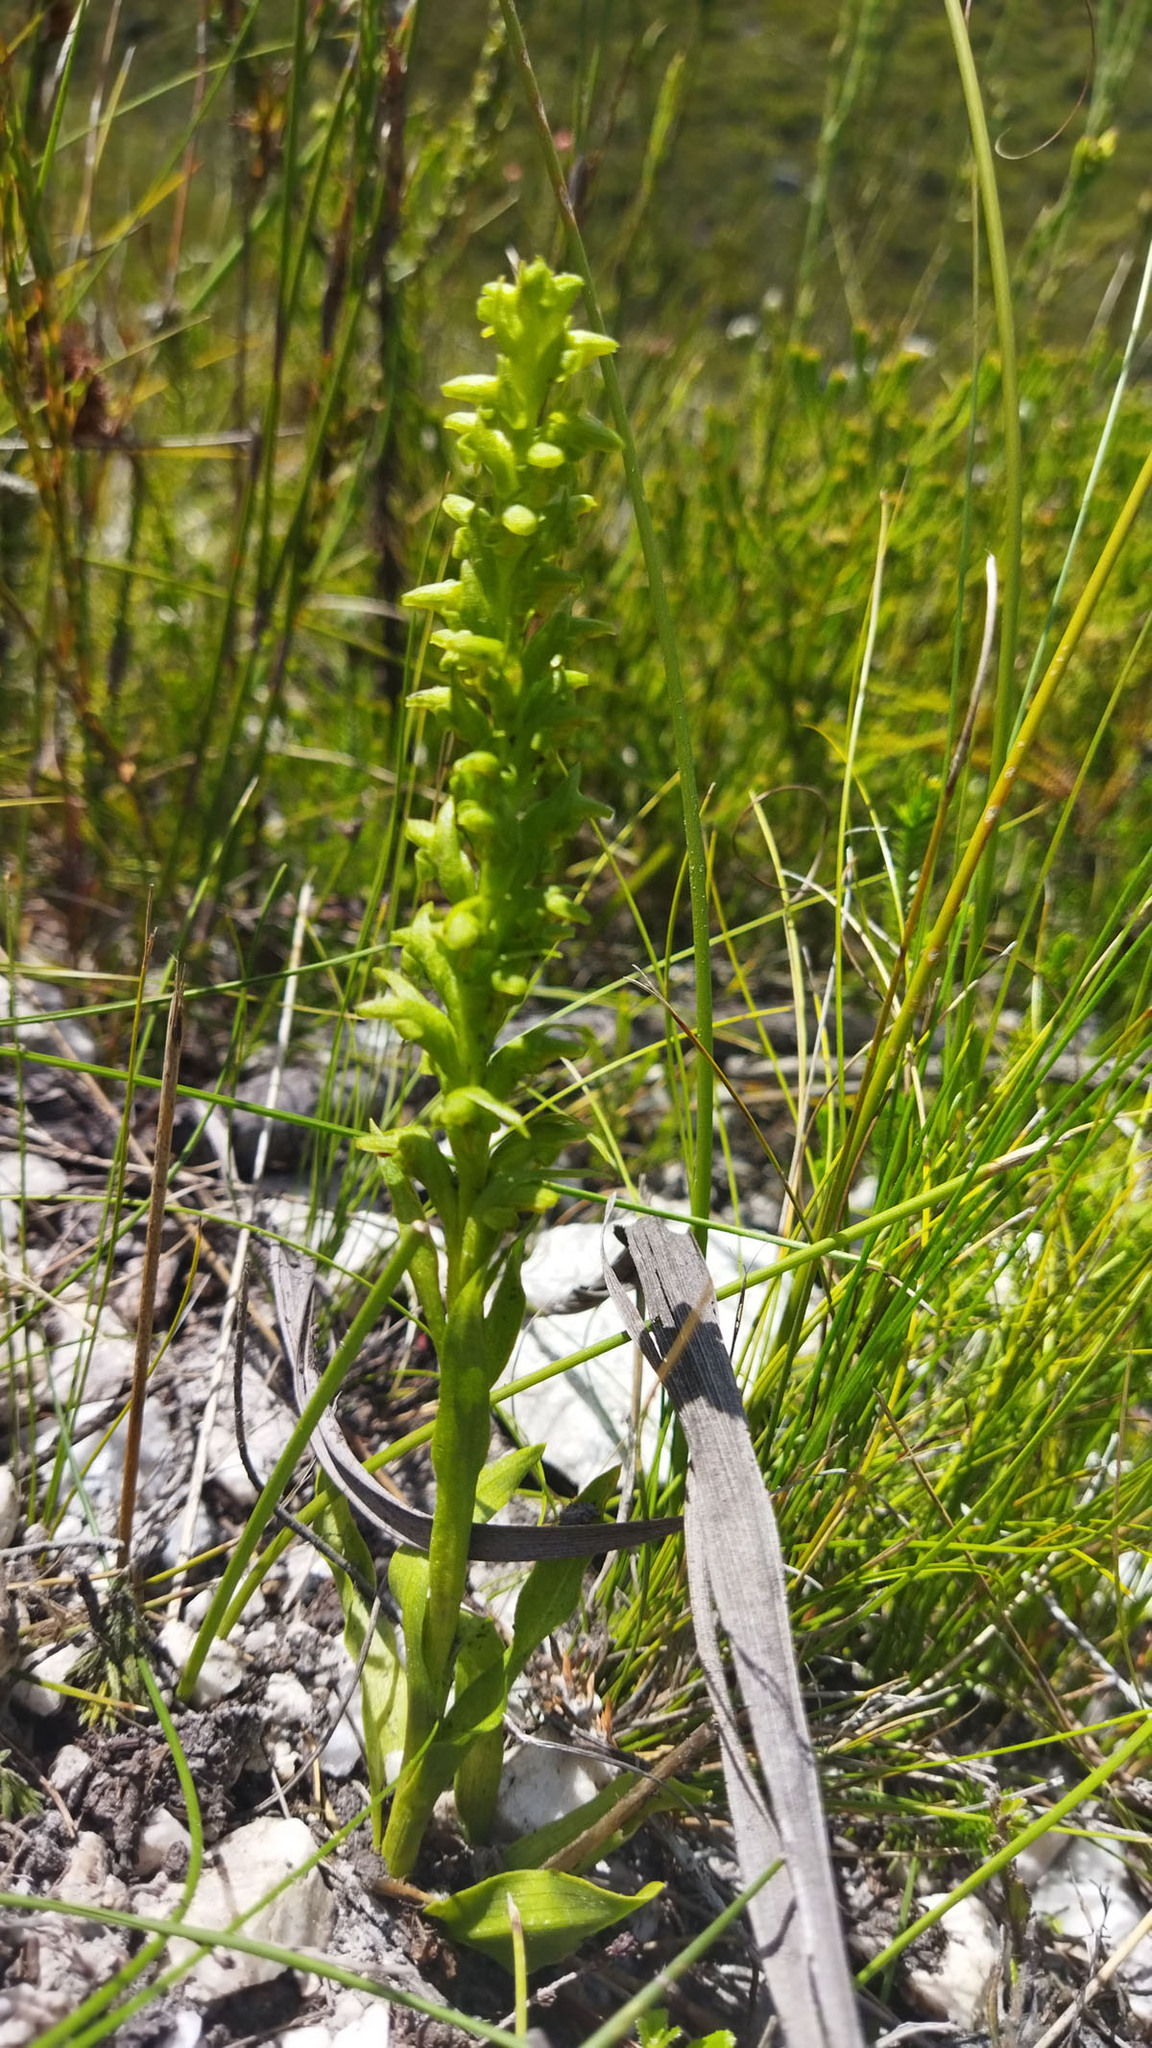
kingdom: Plantae
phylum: Tracheophyta
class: Liliopsida
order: Asparagales
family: Orchidaceae
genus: Disa
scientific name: Disa cylindrica
